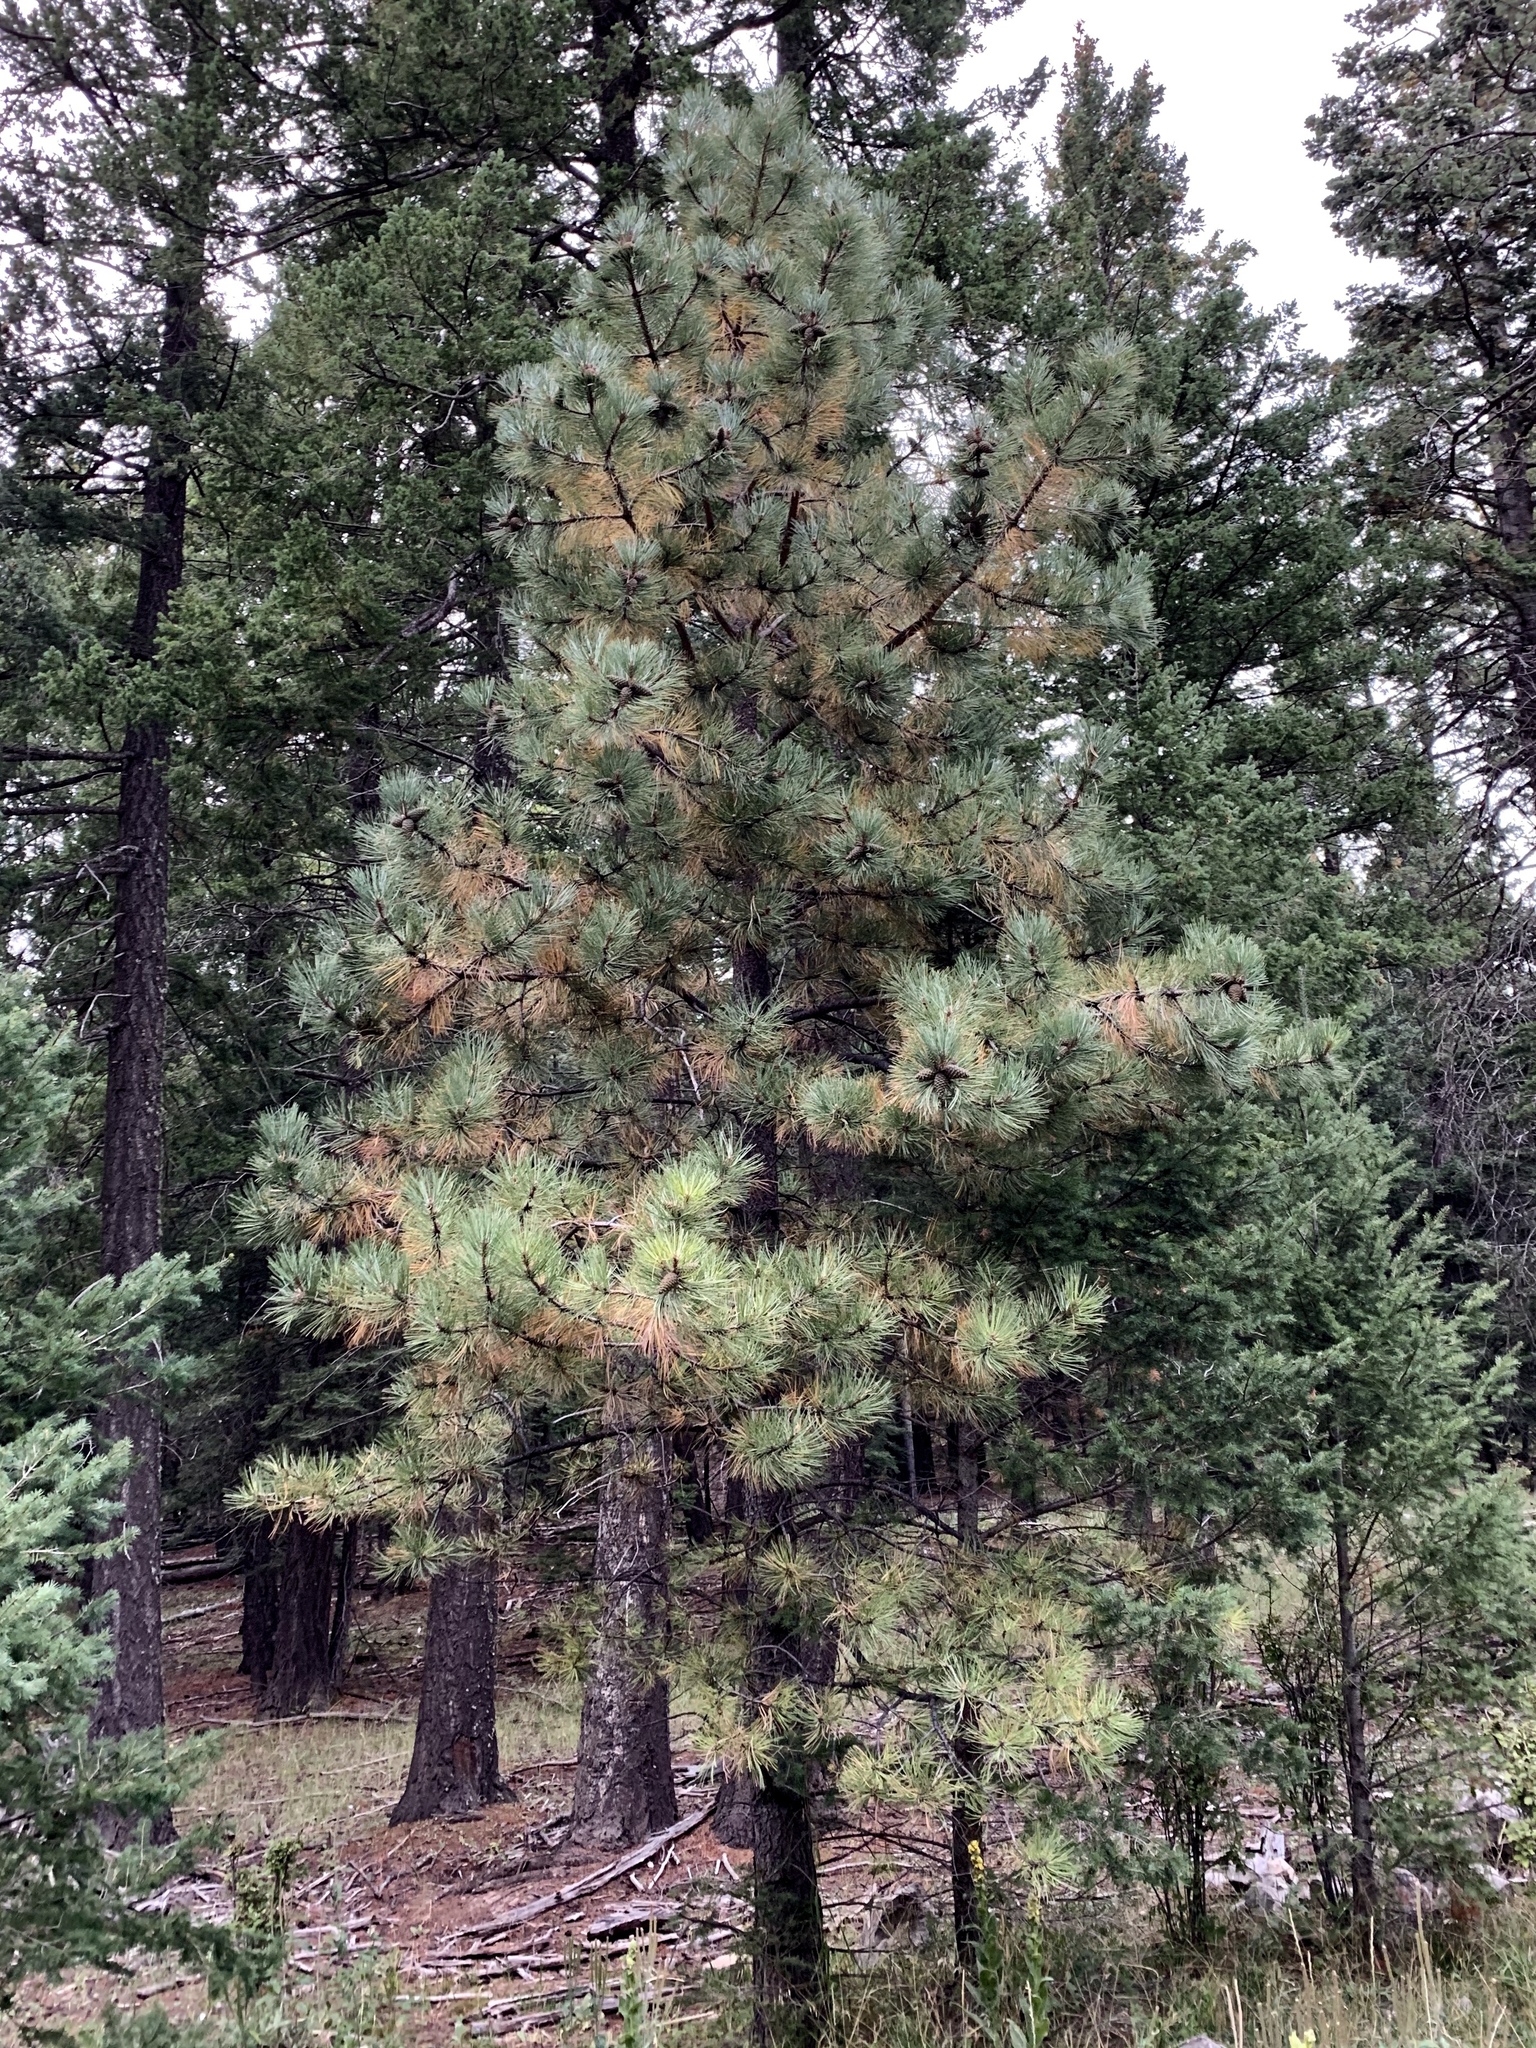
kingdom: Plantae
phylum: Tracheophyta
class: Pinopsida
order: Pinales
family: Pinaceae
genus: Pinus
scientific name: Pinus ponderosa
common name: Western yellow-pine
